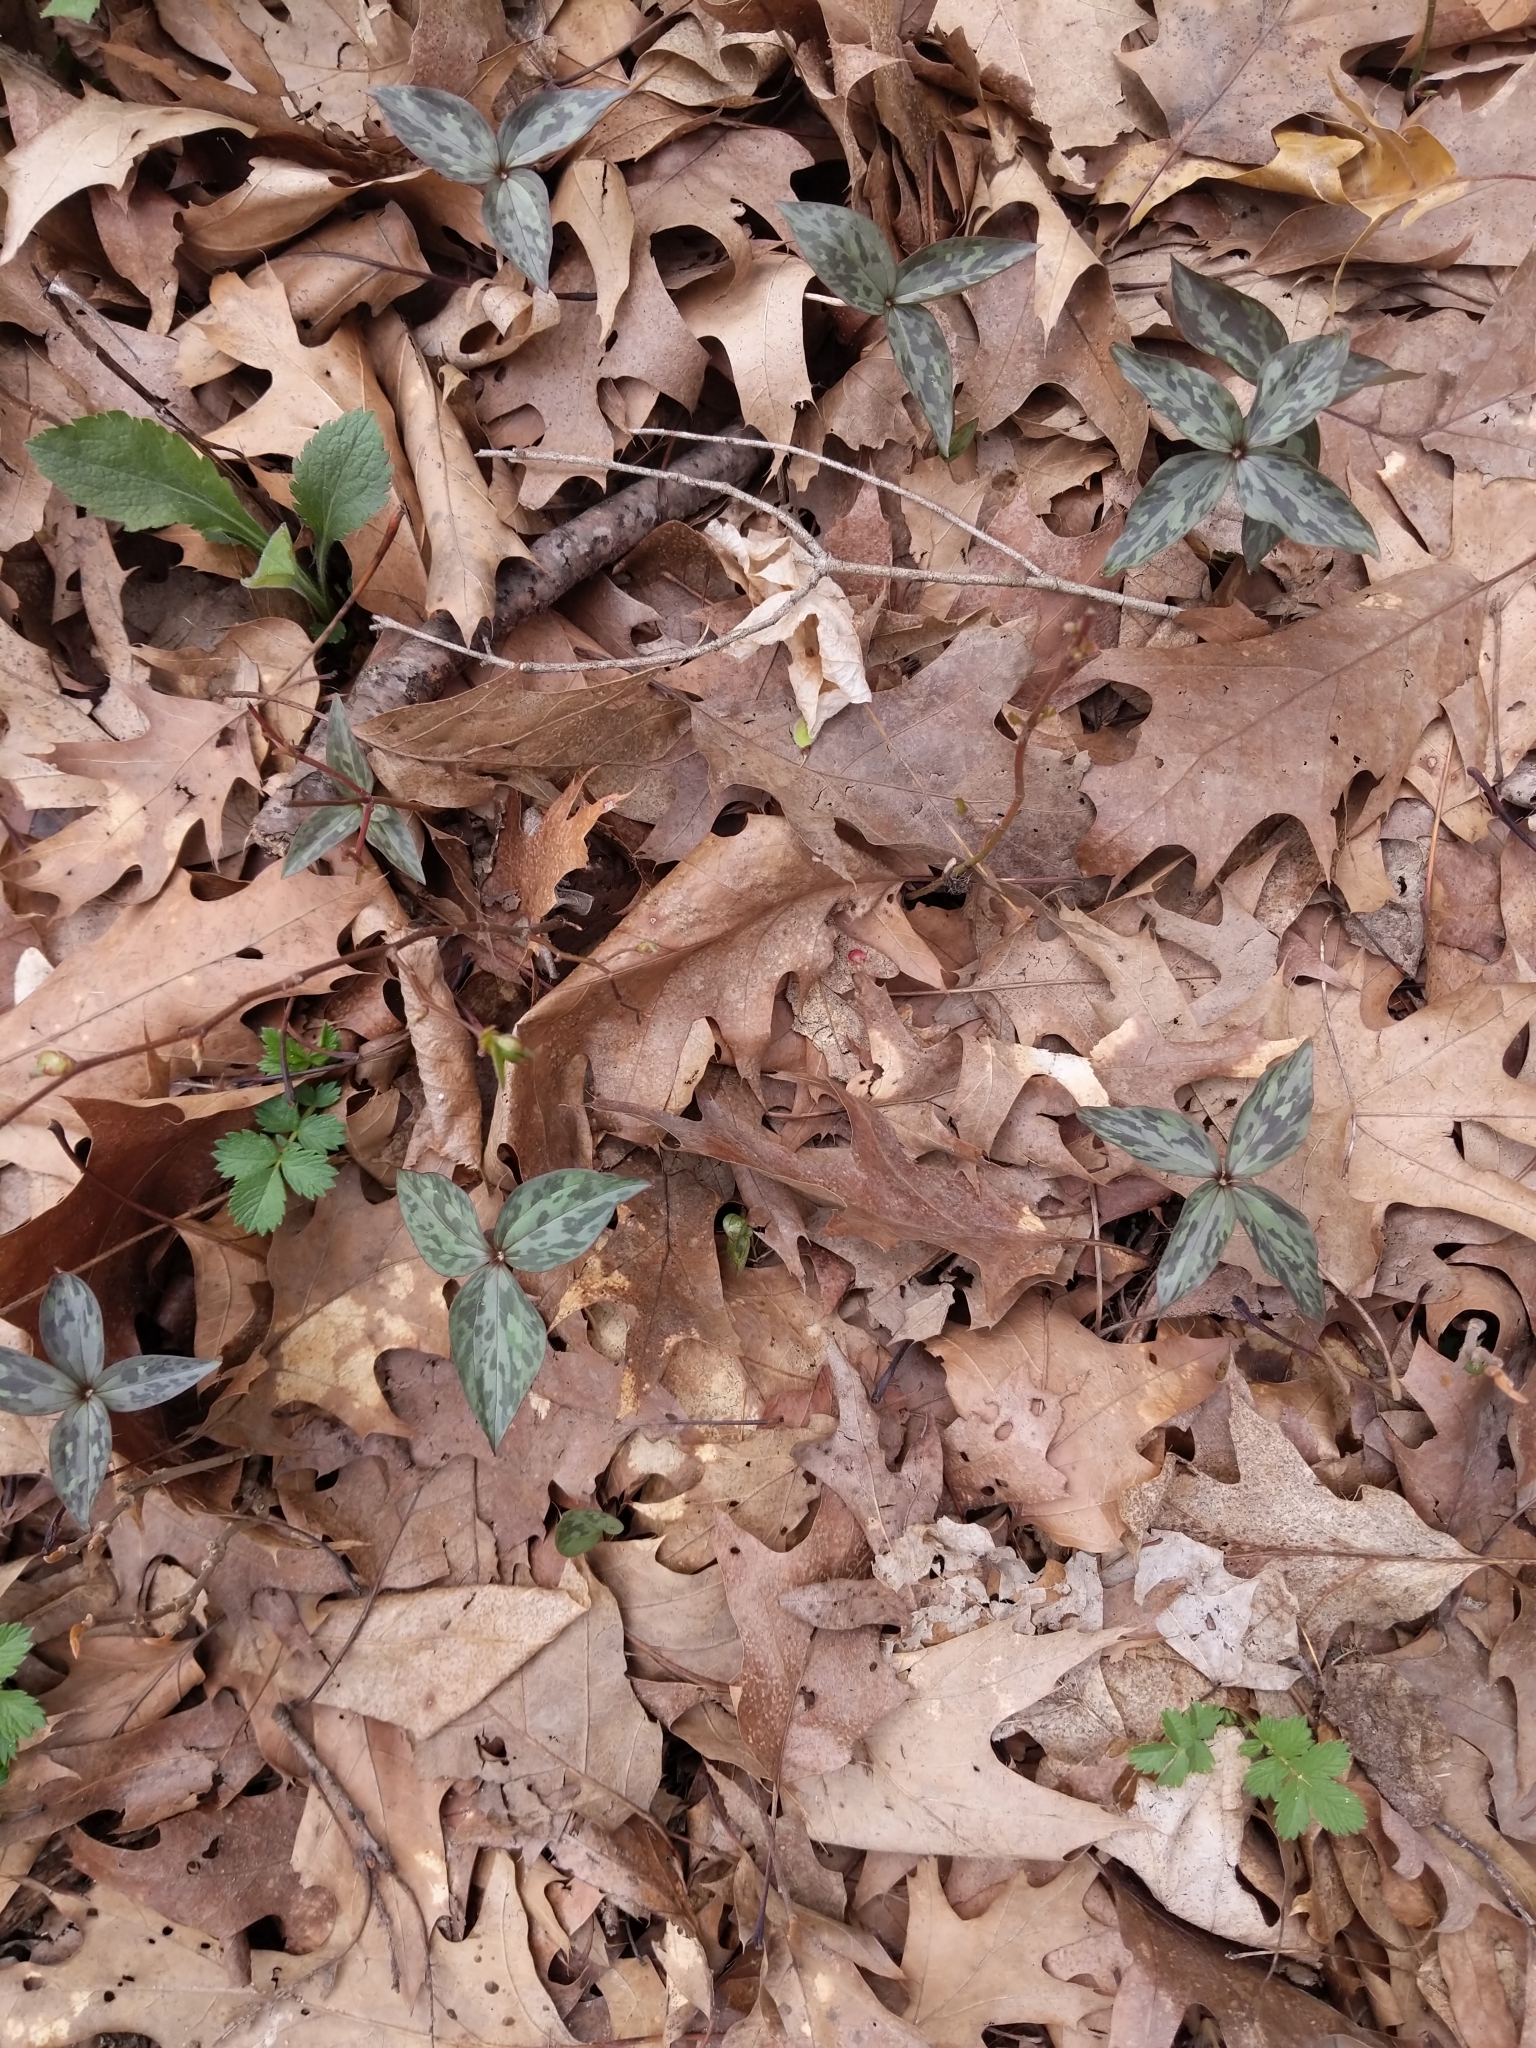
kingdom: Plantae
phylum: Tracheophyta
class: Liliopsida
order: Liliales
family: Melanthiaceae
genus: Trillium
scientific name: Trillium recurvatum
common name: Bloody butcher
